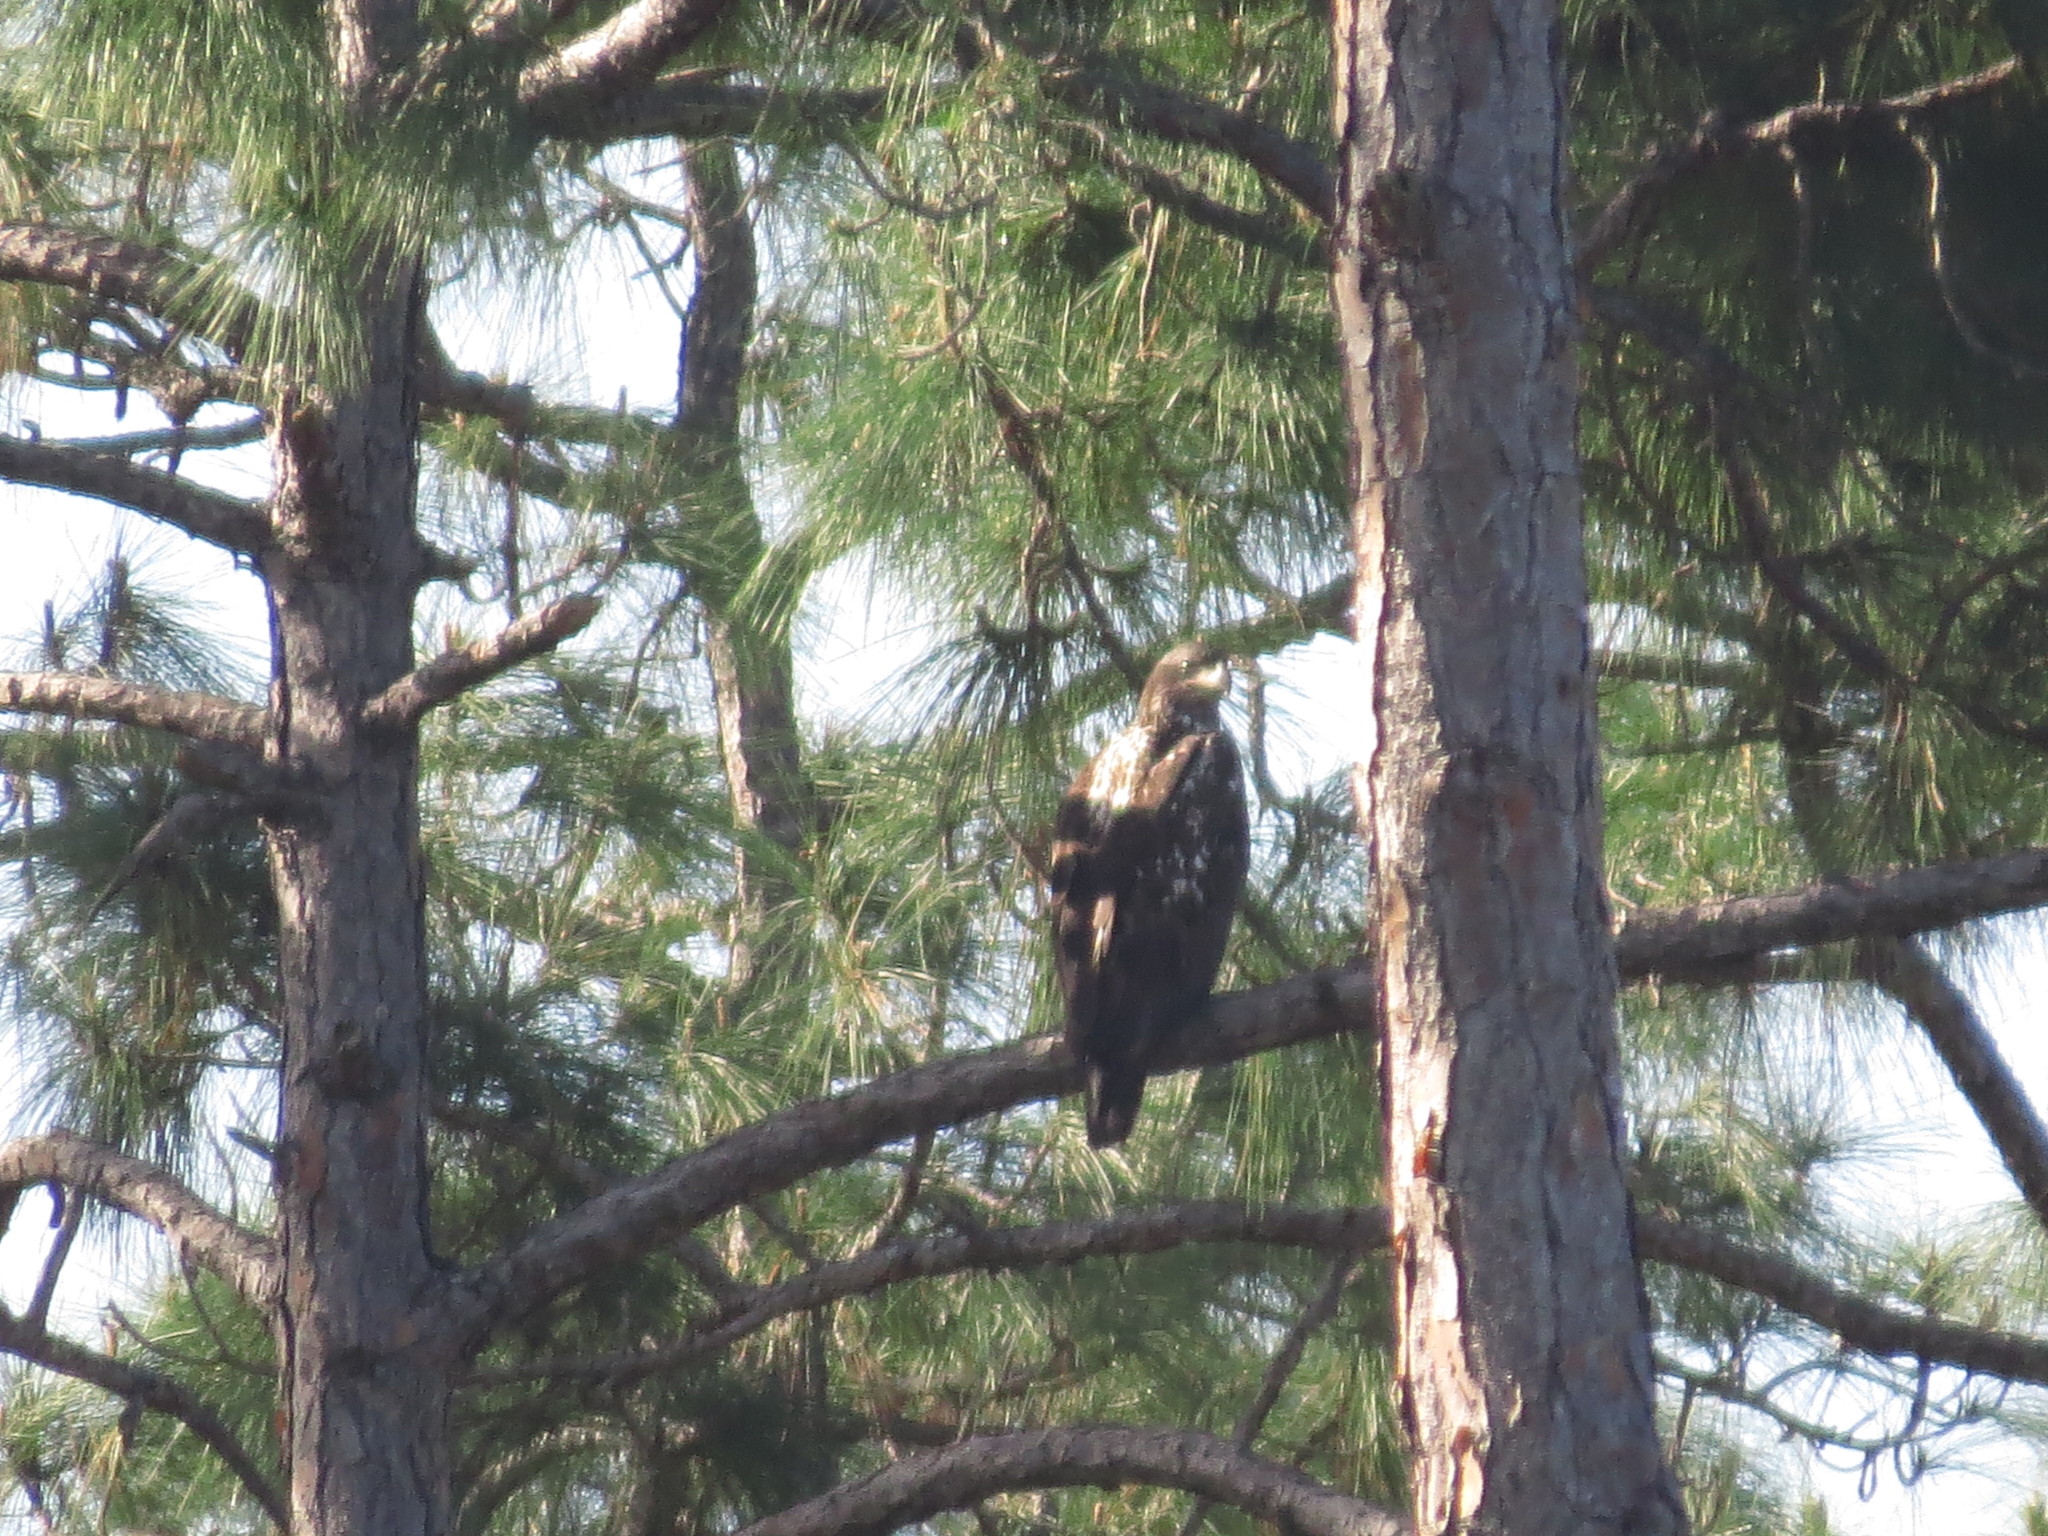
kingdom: Animalia
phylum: Chordata
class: Aves
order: Accipitriformes
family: Accipitridae
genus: Haliaeetus
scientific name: Haliaeetus leucocephalus
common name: Bald eagle
